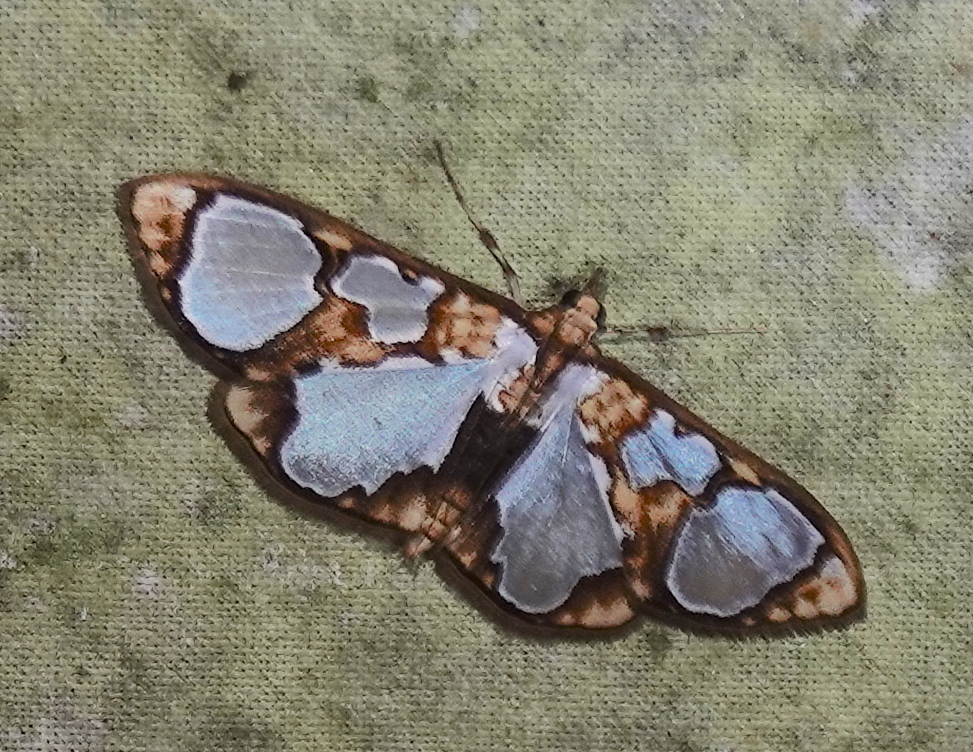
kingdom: Animalia
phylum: Arthropoda
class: Insecta
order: Lepidoptera
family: Crambidae
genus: Glyphodes
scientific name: Glyphodes grandisalis
